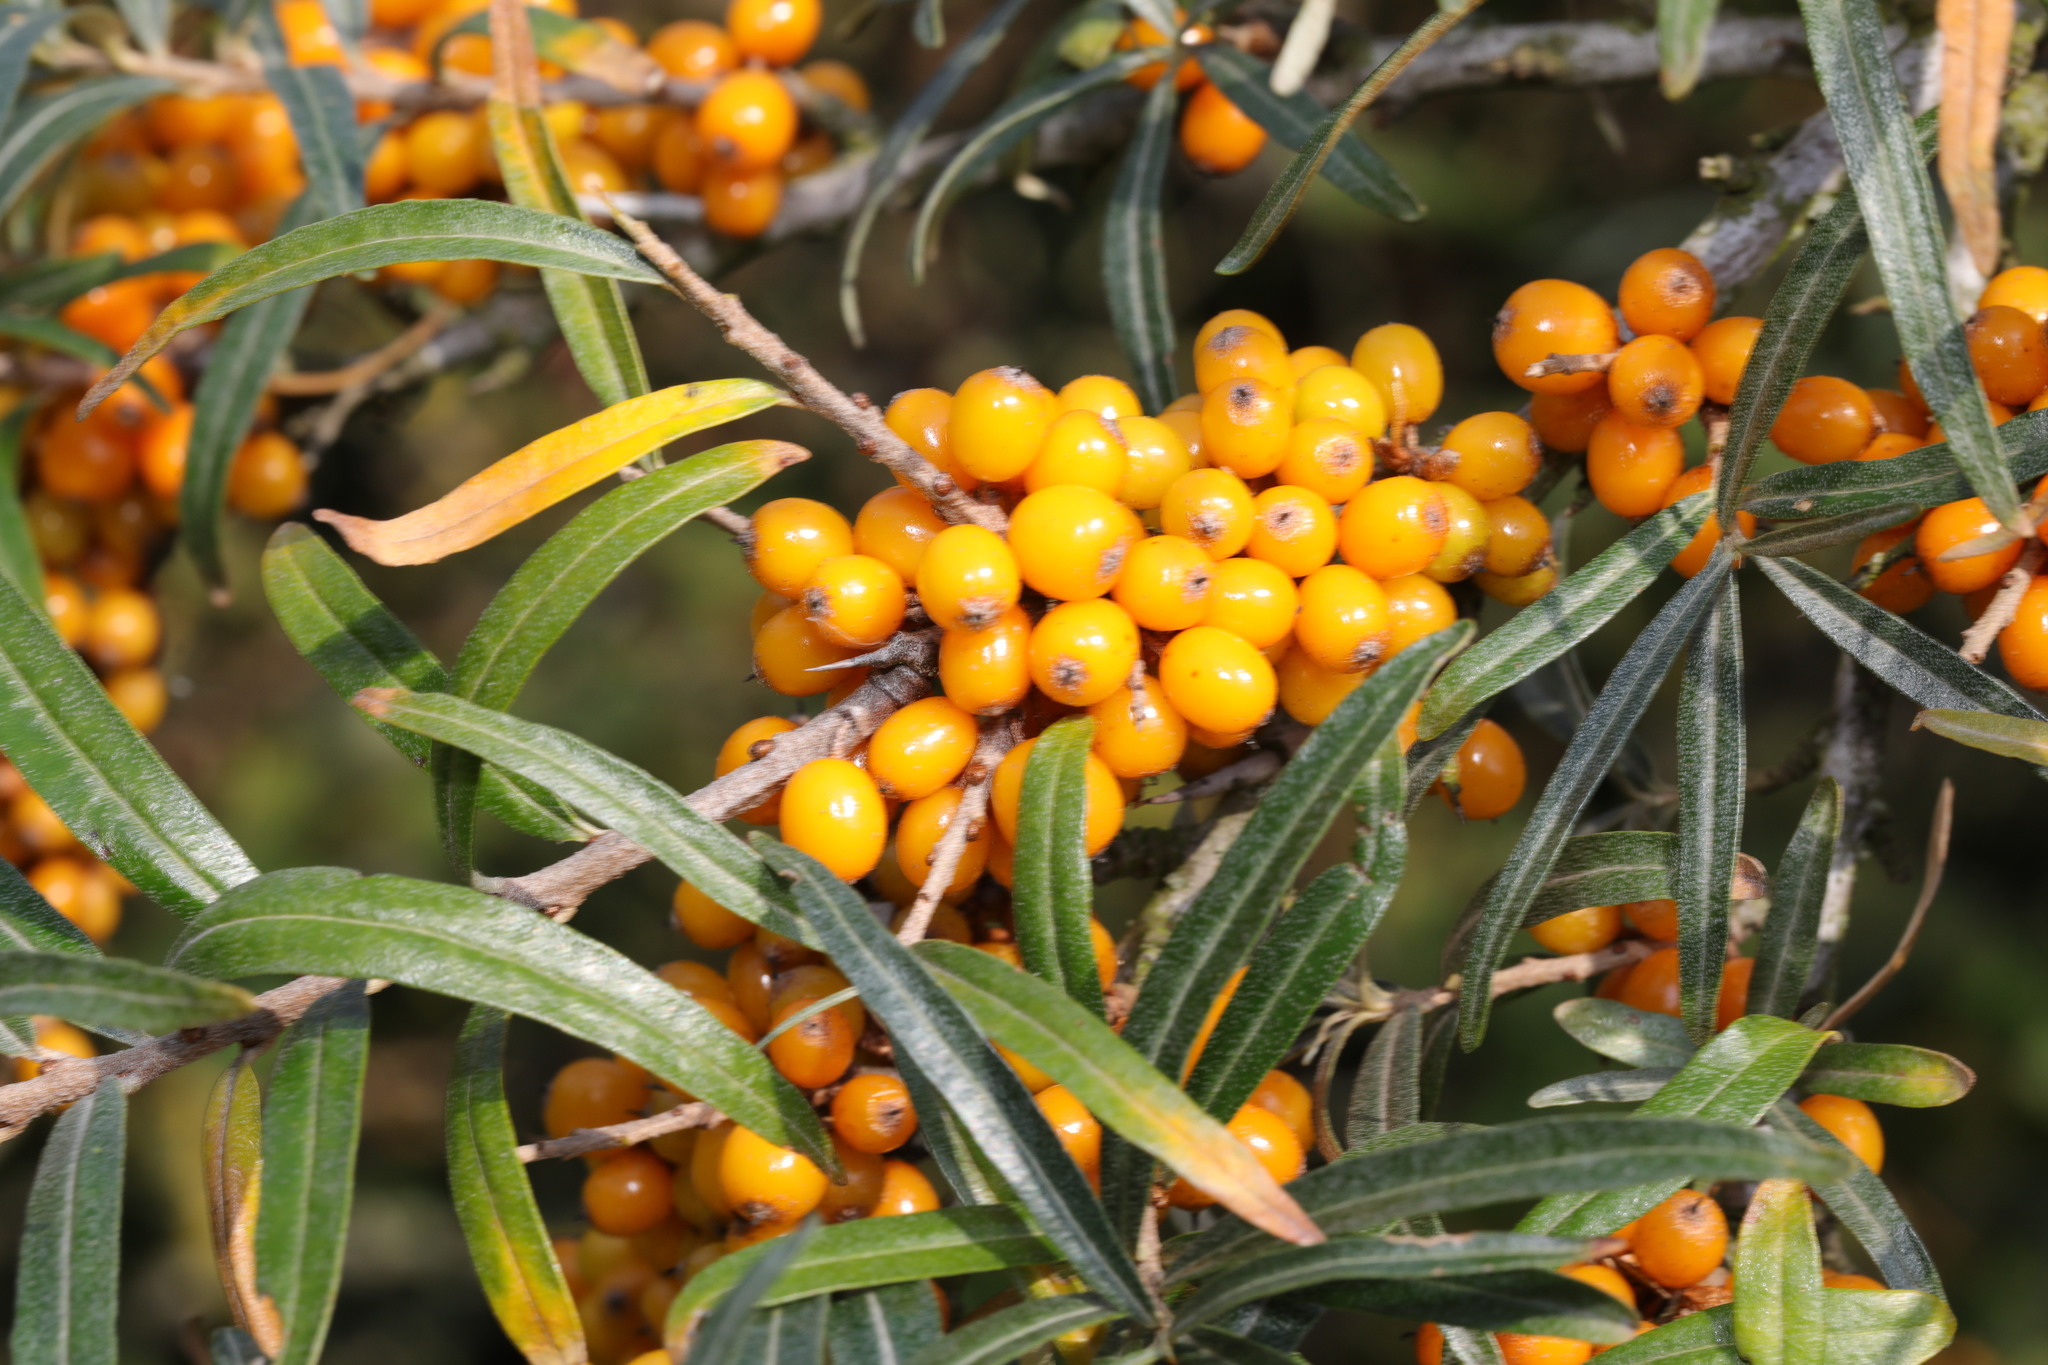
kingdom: Plantae
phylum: Tracheophyta
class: Magnoliopsida
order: Rosales
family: Elaeagnaceae
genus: Hippophae
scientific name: Hippophae rhamnoides
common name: Sea-buckthorn
